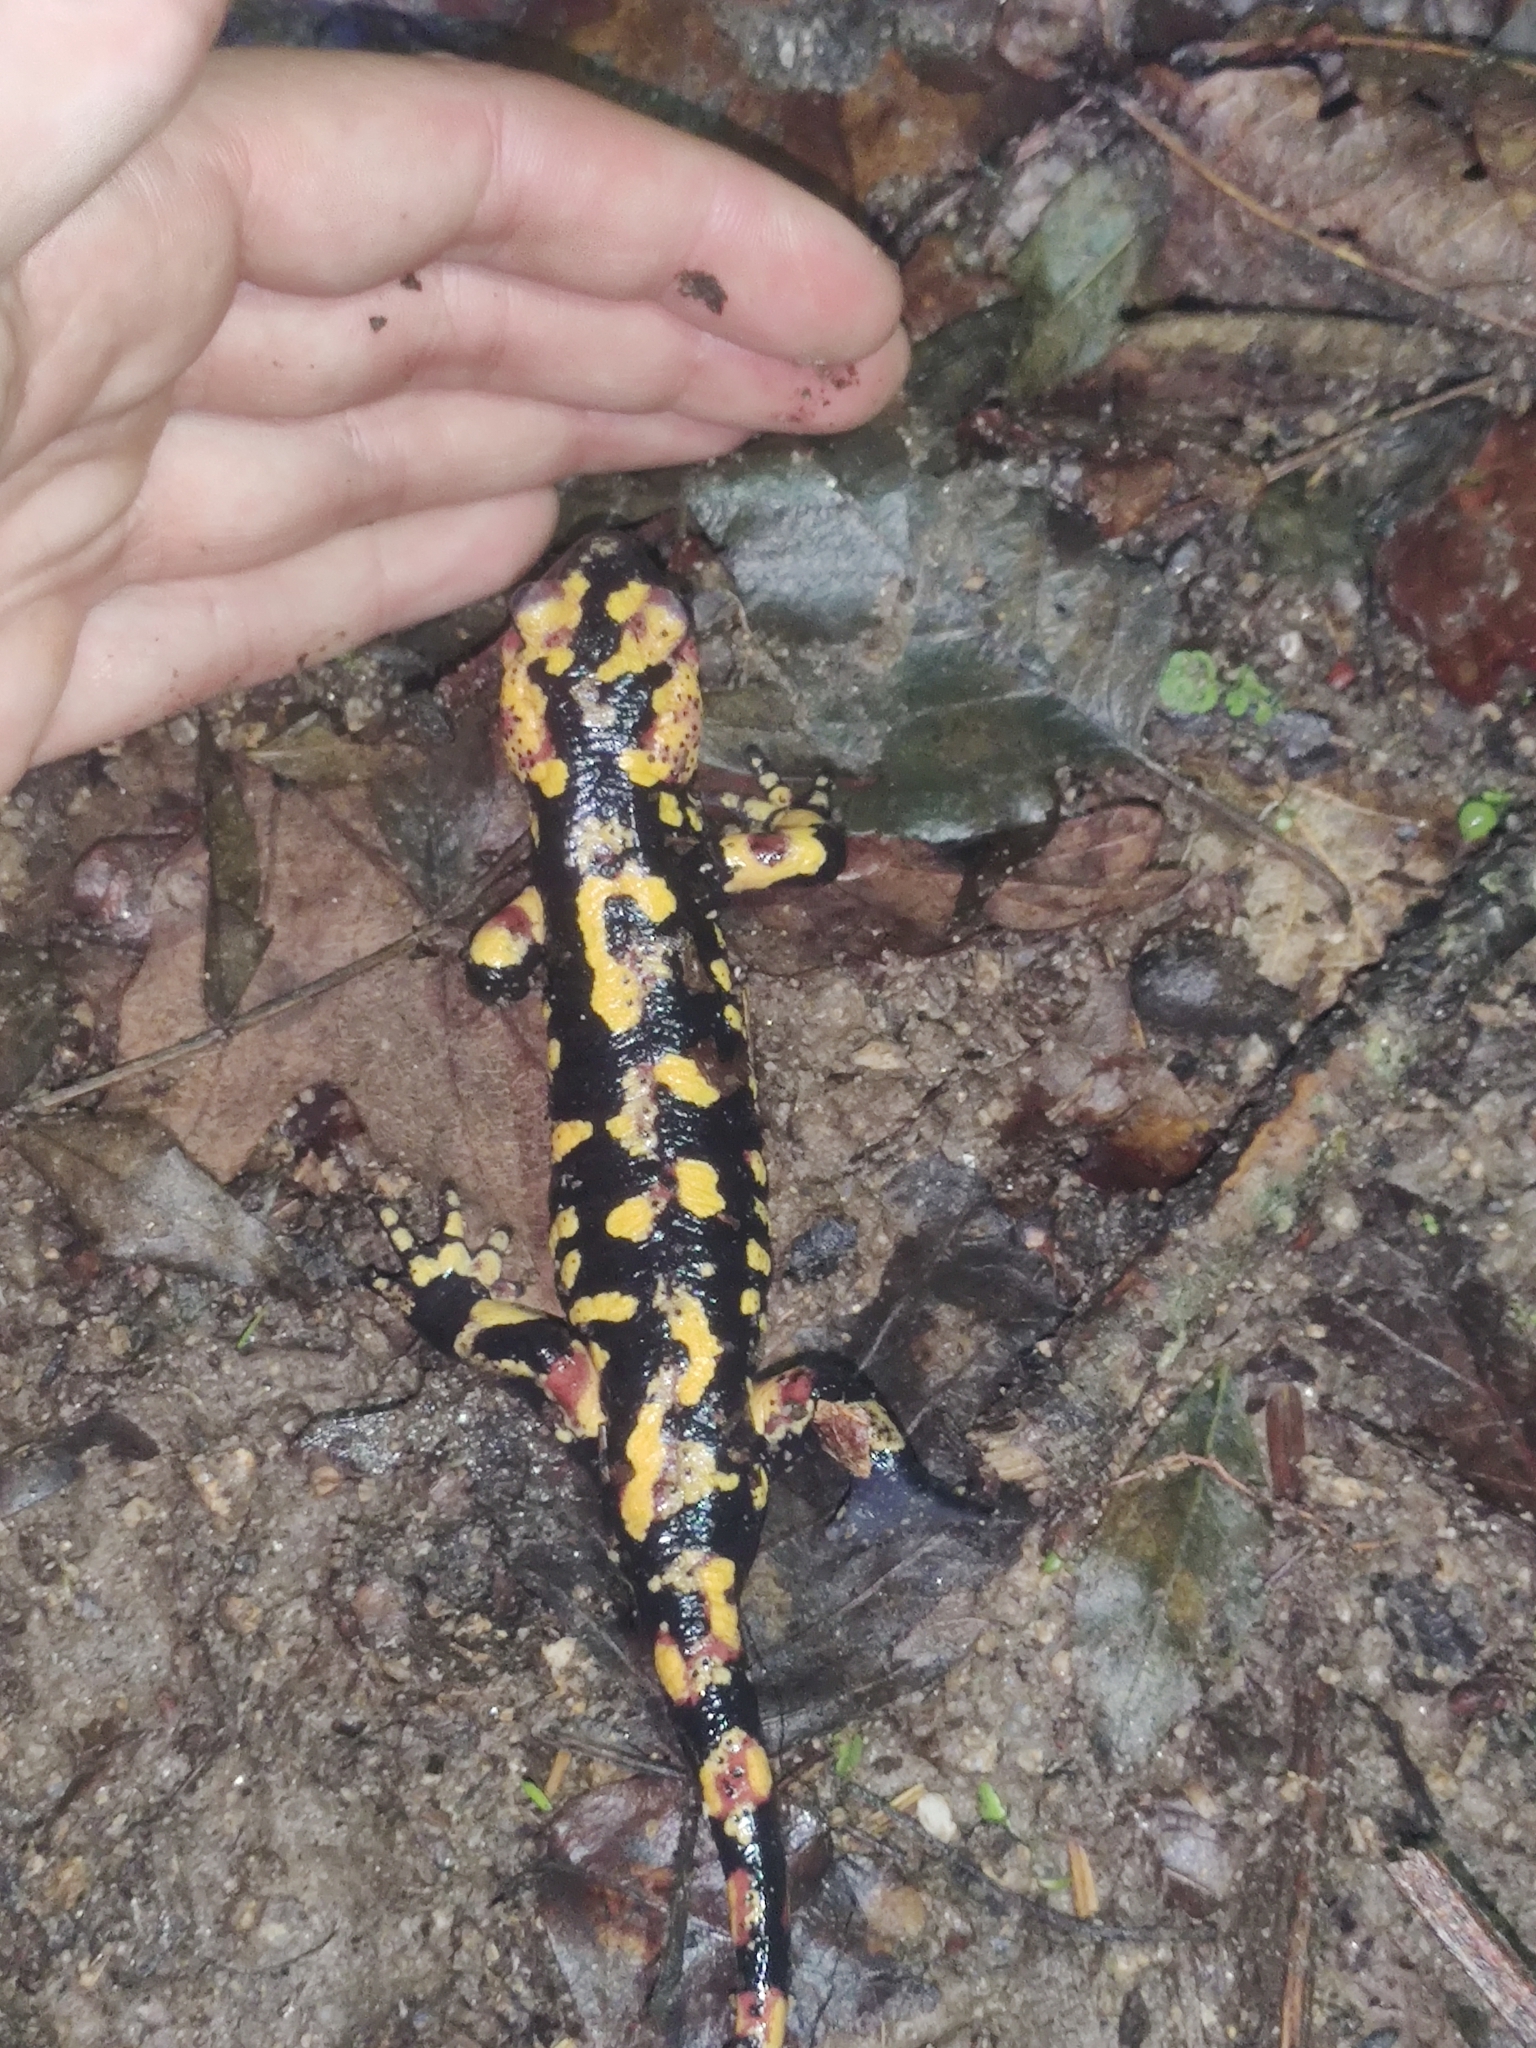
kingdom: Animalia
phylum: Chordata
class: Amphibia
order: Caudata
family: Salamandridae
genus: Salamandra
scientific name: Salamandra salamandra
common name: Fire salamander
